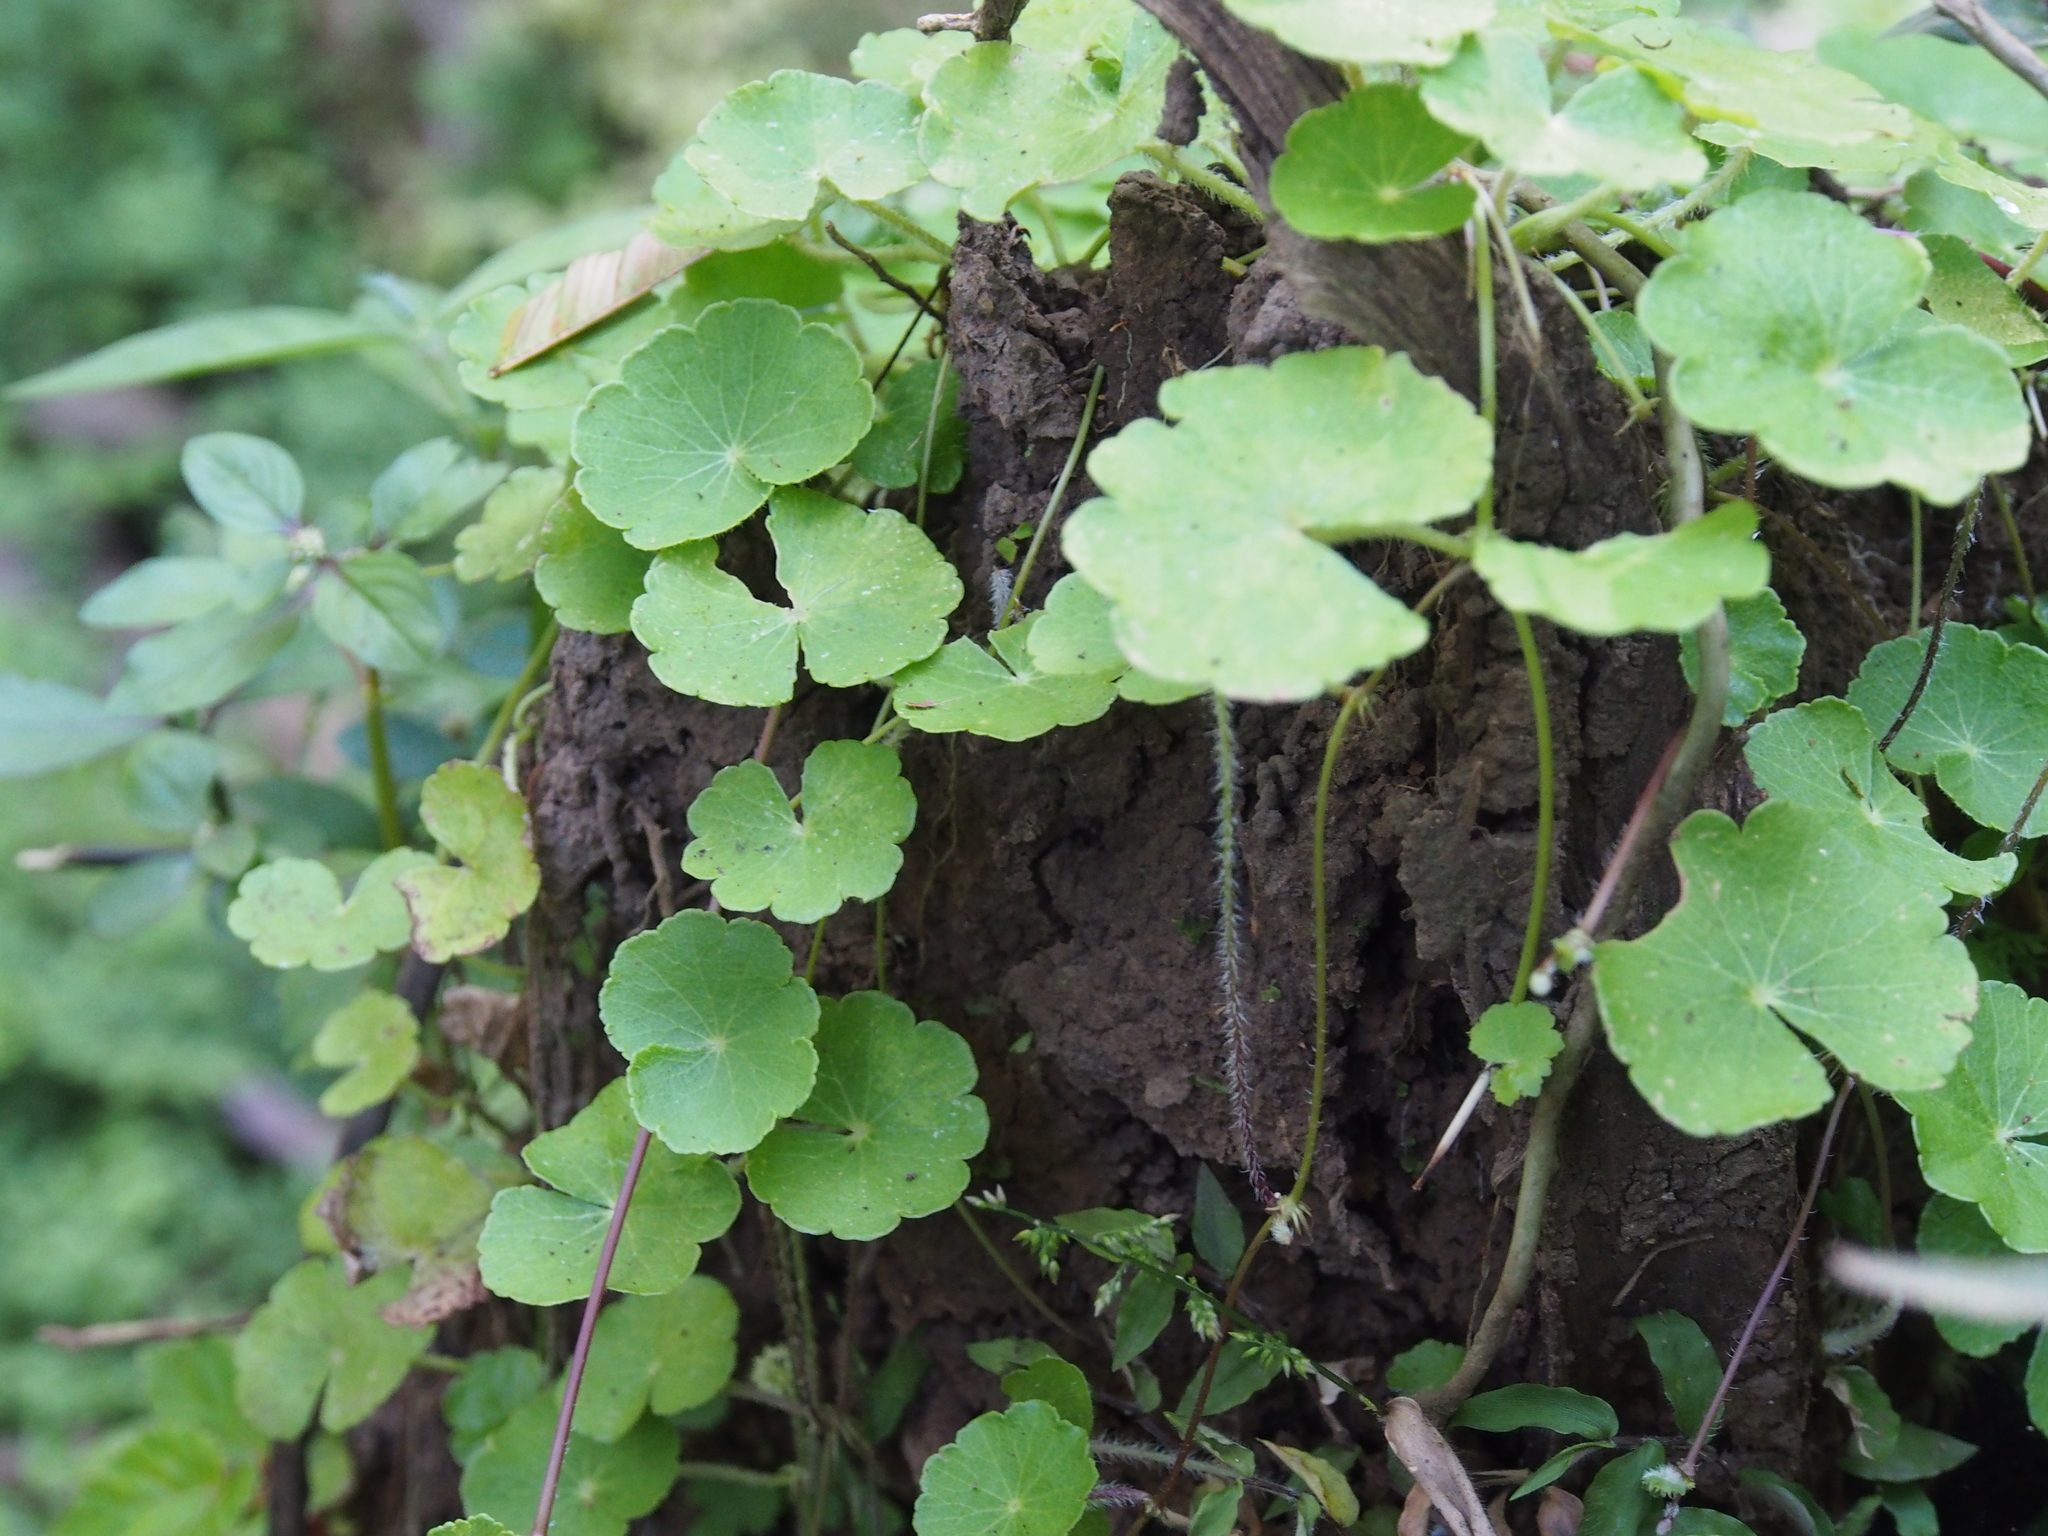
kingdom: Plantae
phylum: Tracheophyta
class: Magnoliopsida
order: Apiales
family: Araliaceae
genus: Hydrocotyle
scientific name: Hydrocotyle leucocephala
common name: Brazilian pennywort
